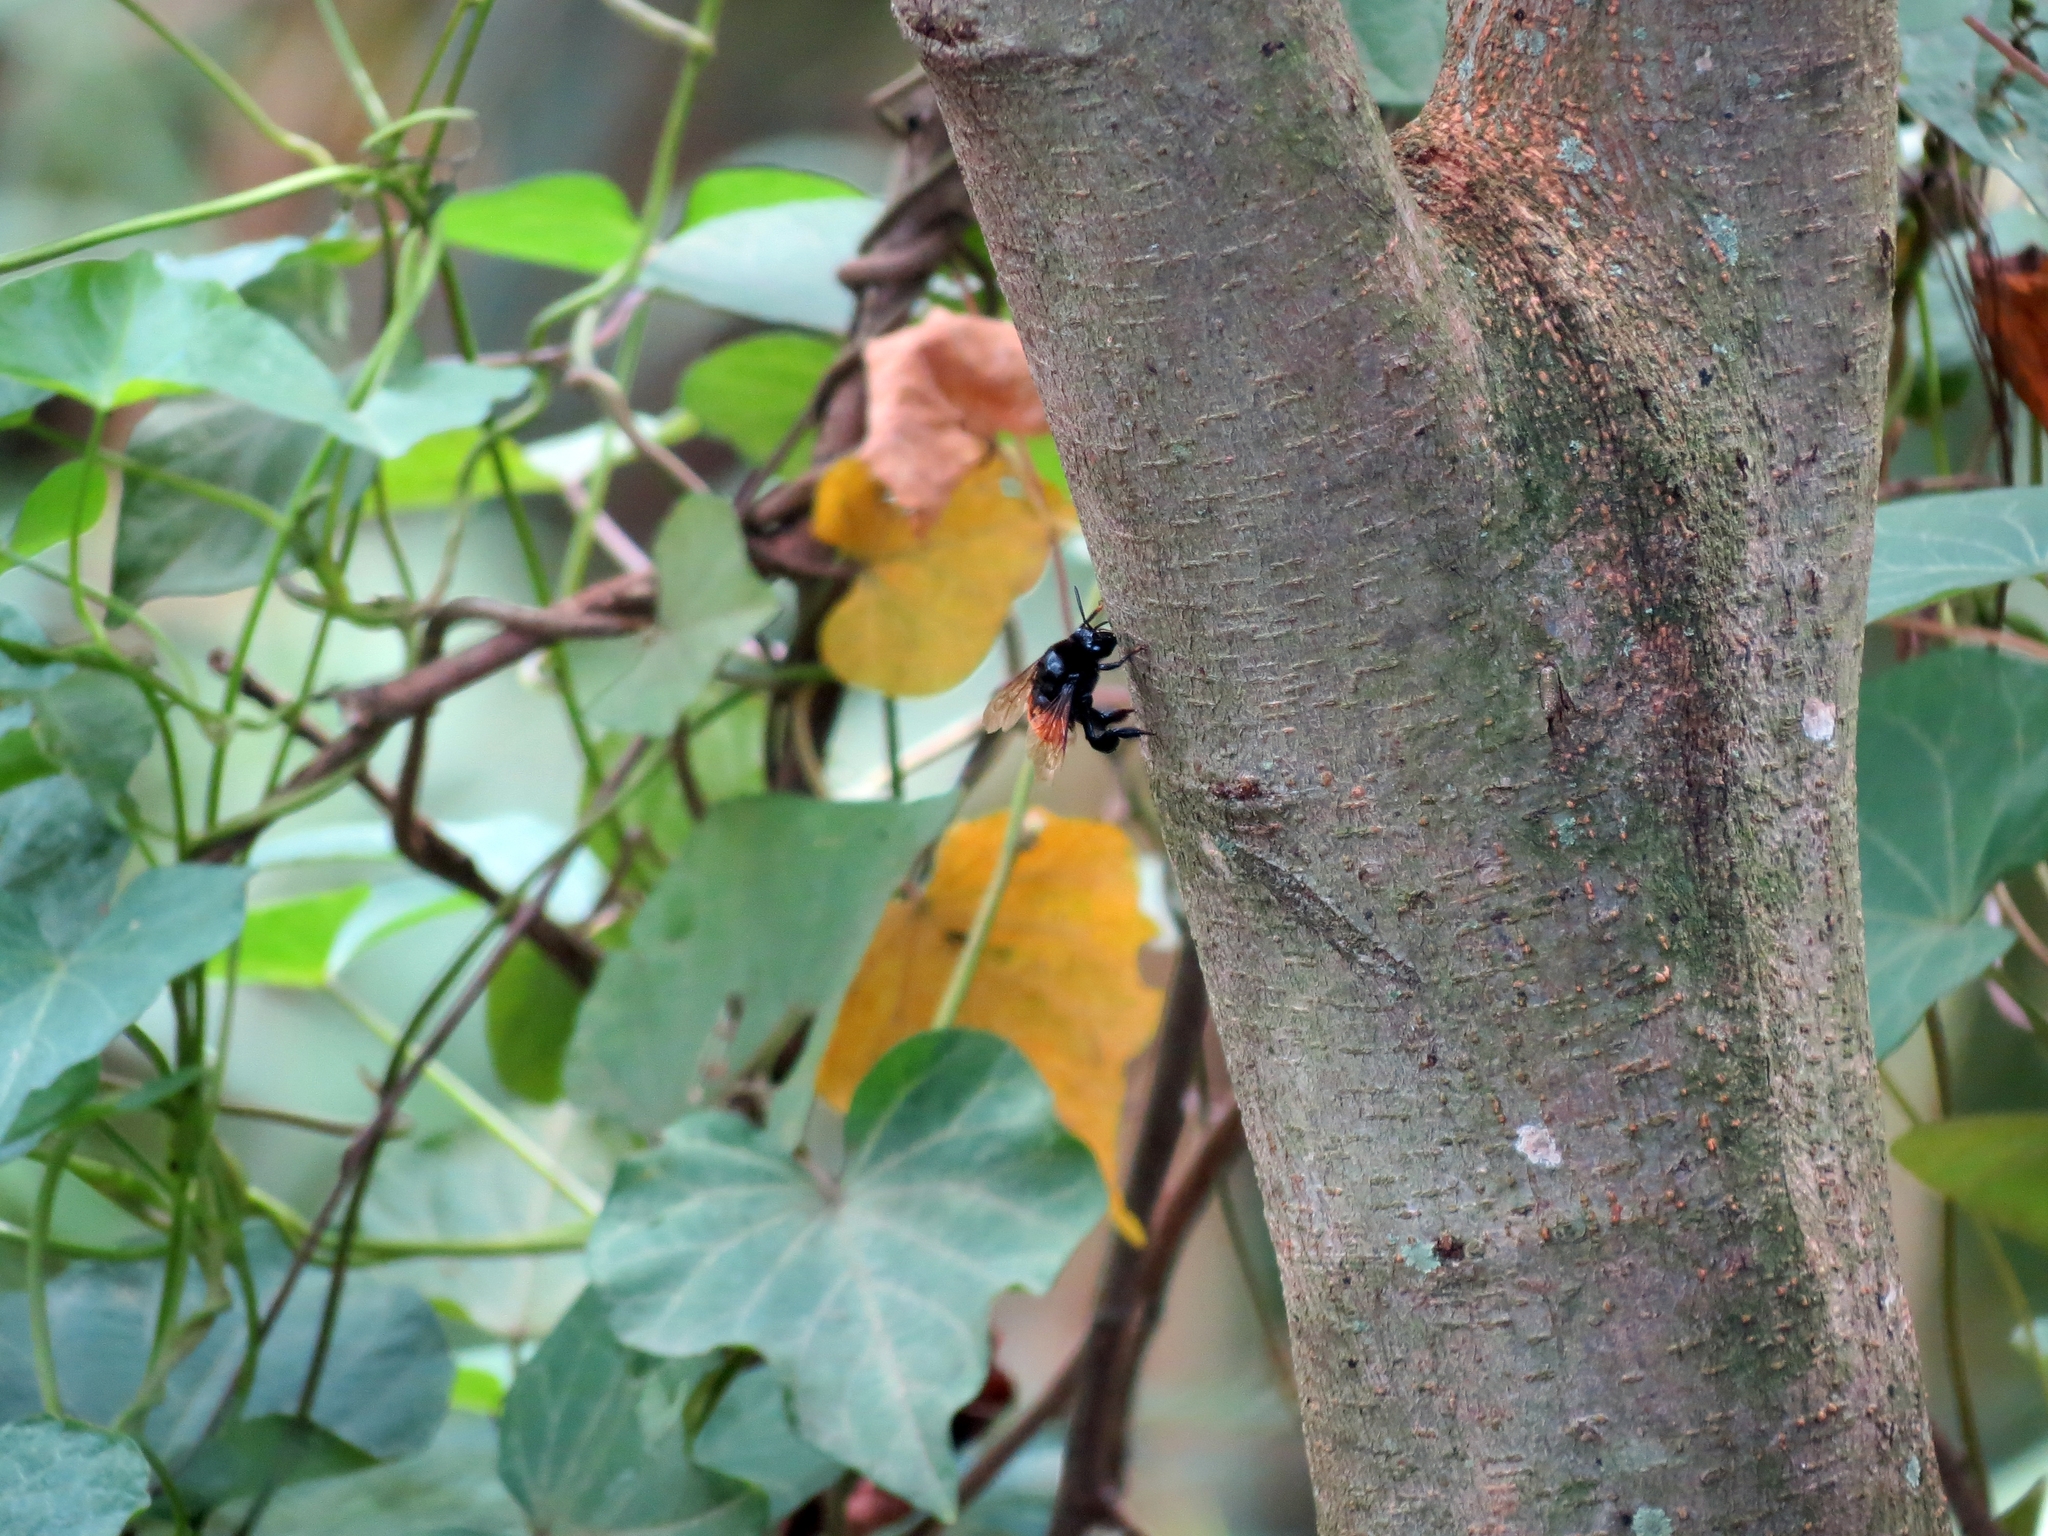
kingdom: Animalia
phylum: Arthropoda
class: Insecta
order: Hymenoptera
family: Apidae
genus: Eulaema
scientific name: Eulaema polychroma
